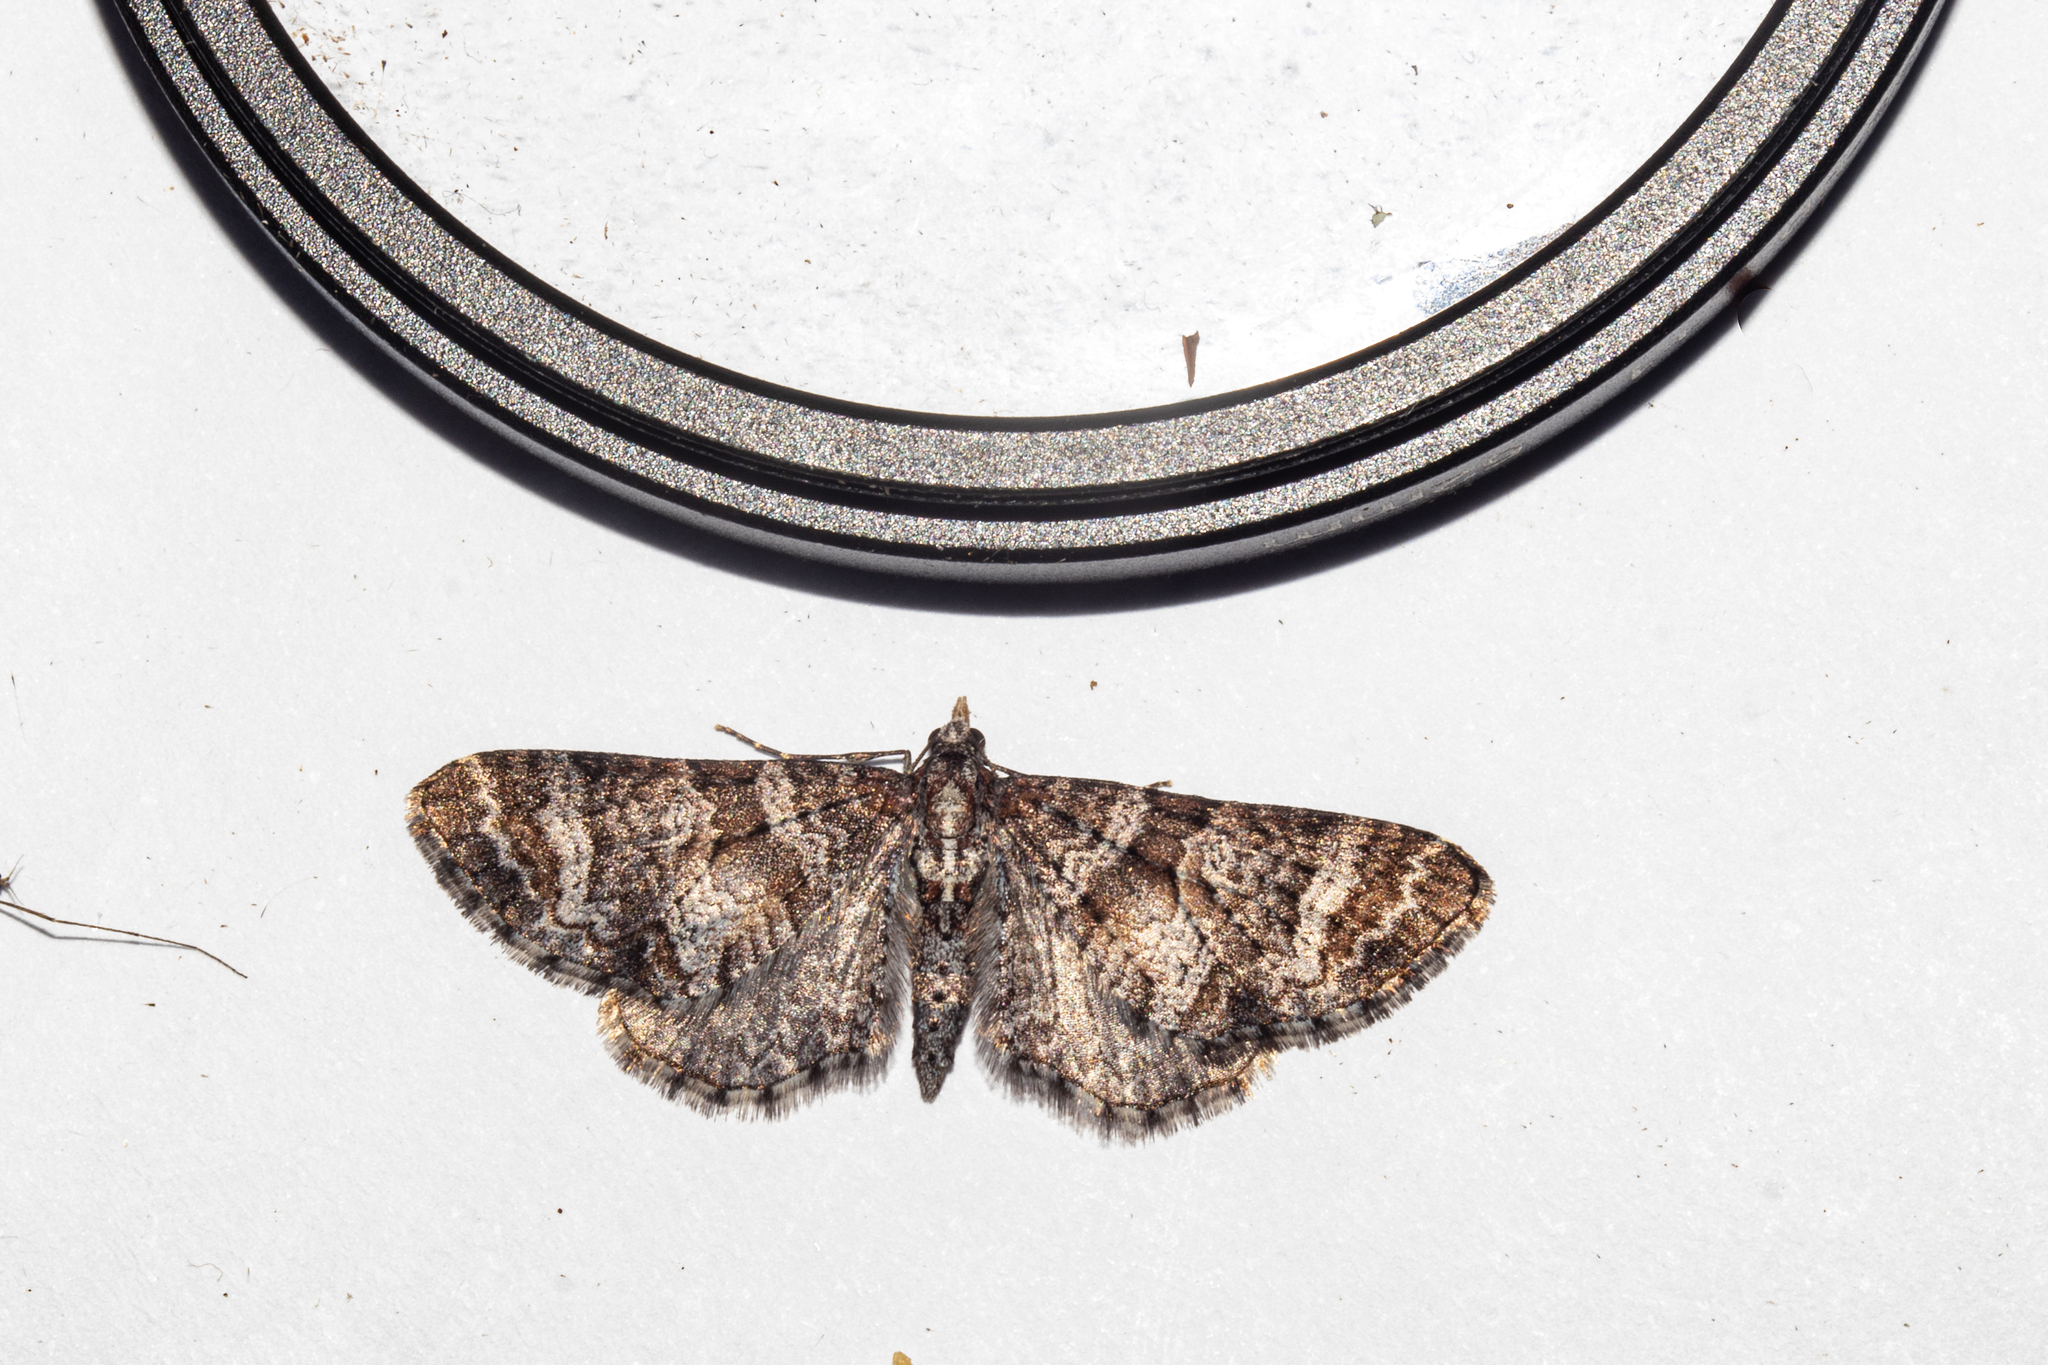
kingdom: Animalia
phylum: Arthropoda
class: Insecta
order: Lepidoptera
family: Geometridae
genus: Pasiphila
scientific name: Pasiphila halianthes
